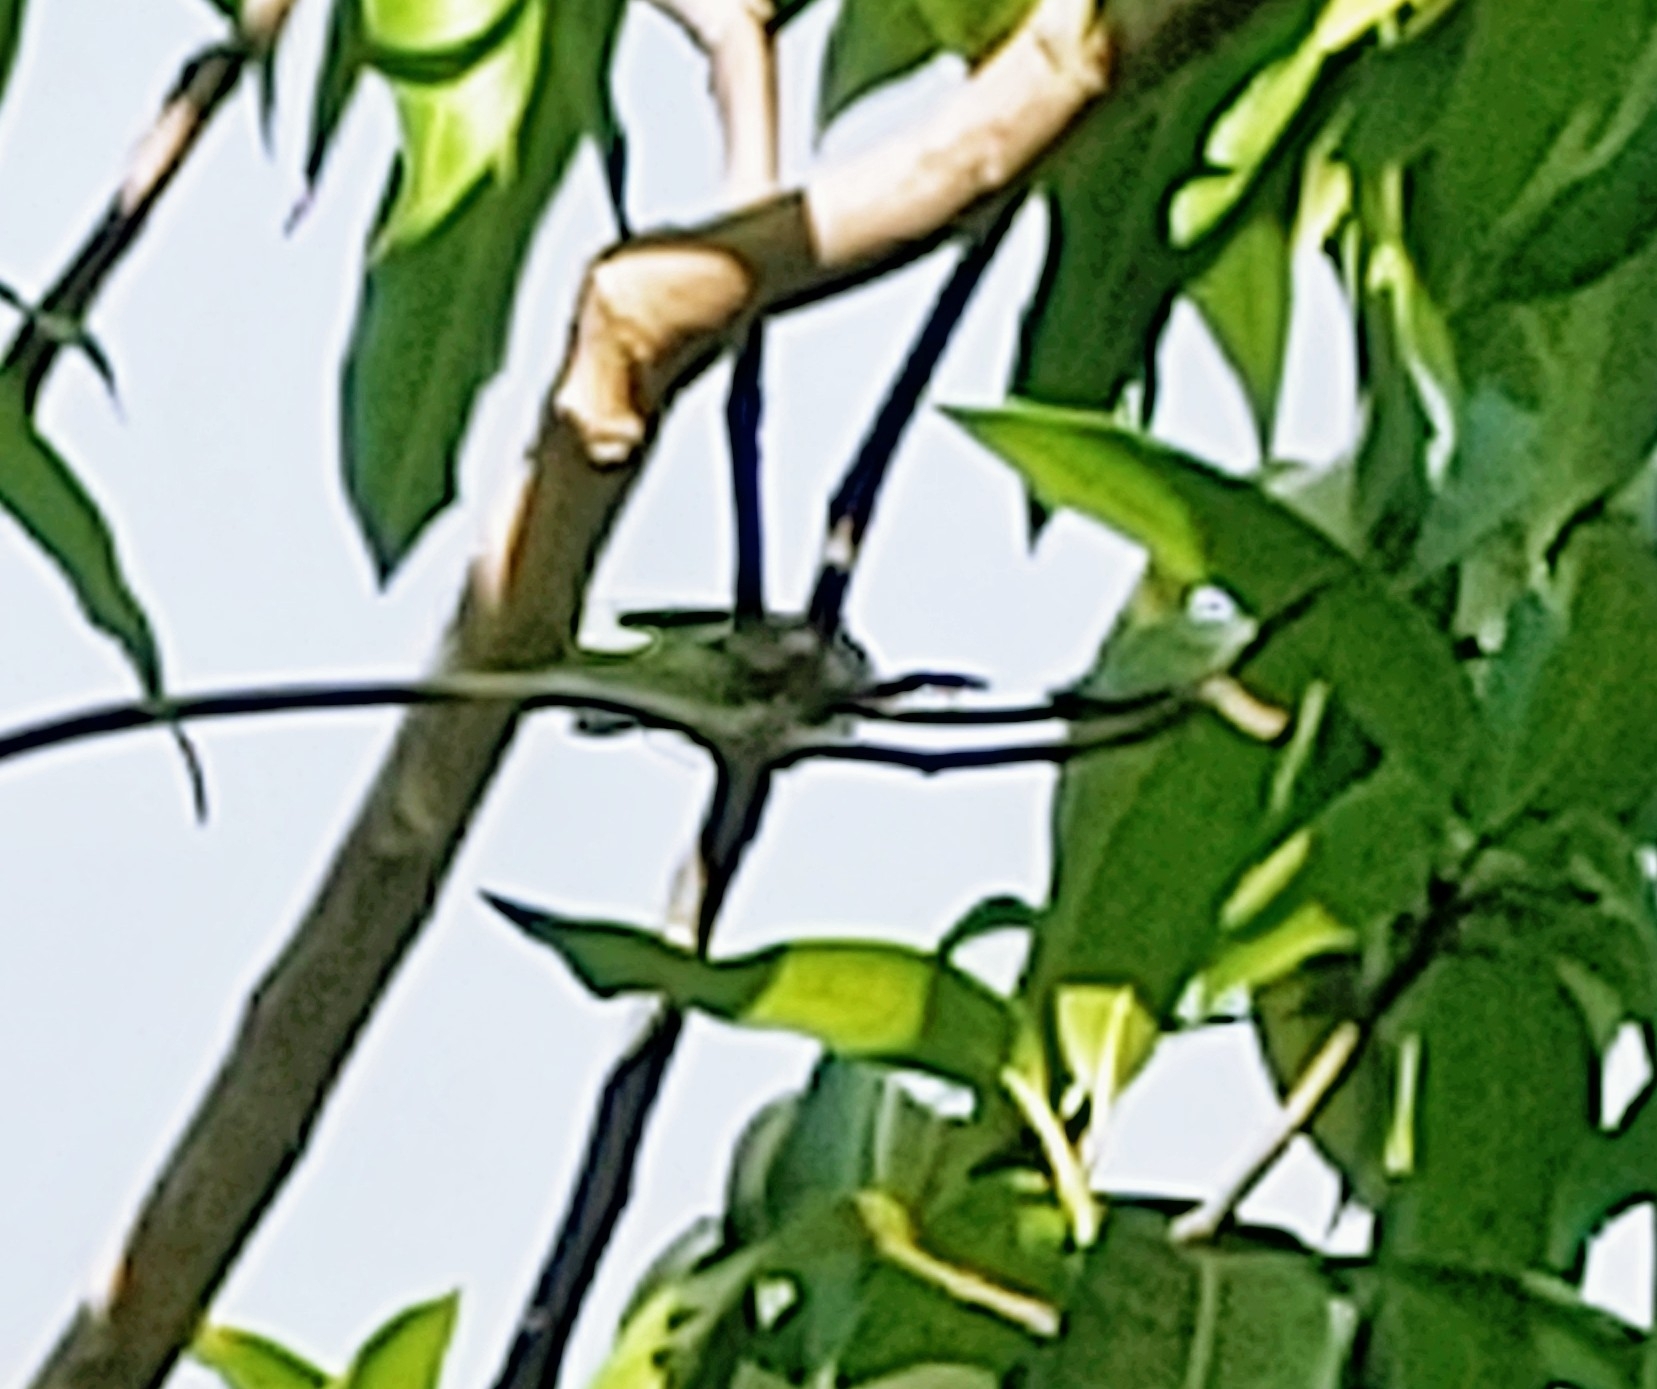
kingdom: Animalia
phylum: Chordata
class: Aves
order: Passeriformes
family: Parulidae
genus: Setophaga
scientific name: Setophaga americana
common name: Northern parula
